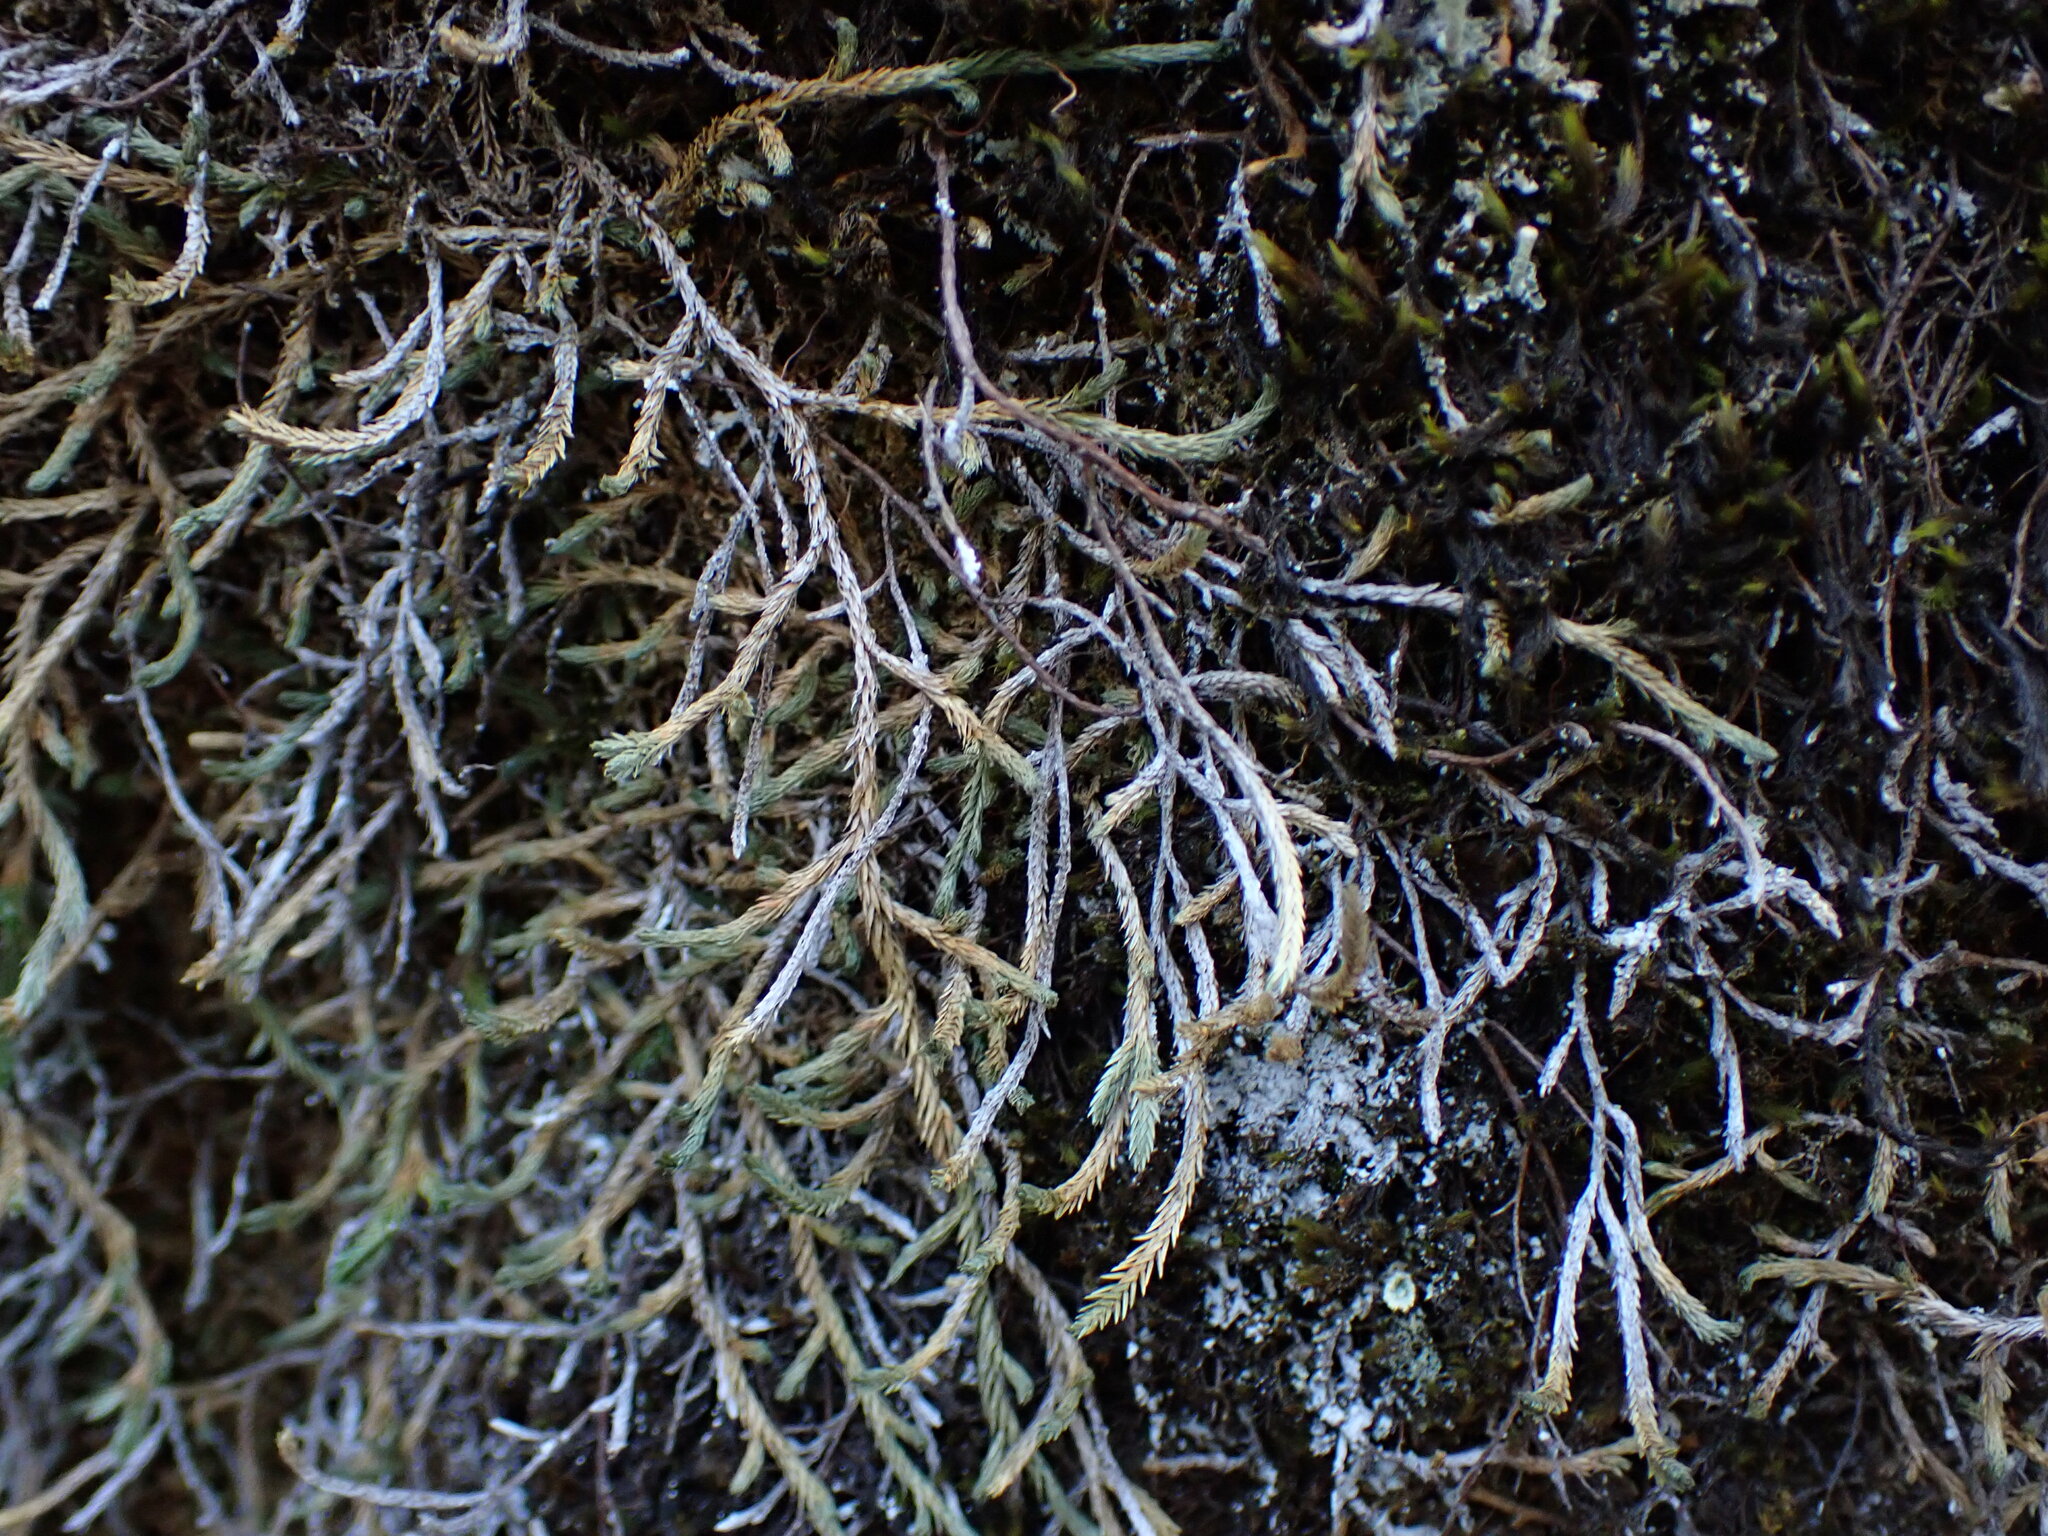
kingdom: Plantae
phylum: Tracheophyta
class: Lycopodiopsida
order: Selaginellales
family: Selaginellaceae
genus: Selaginella
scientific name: Selaginella wallacei
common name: Wallace's selaginella
